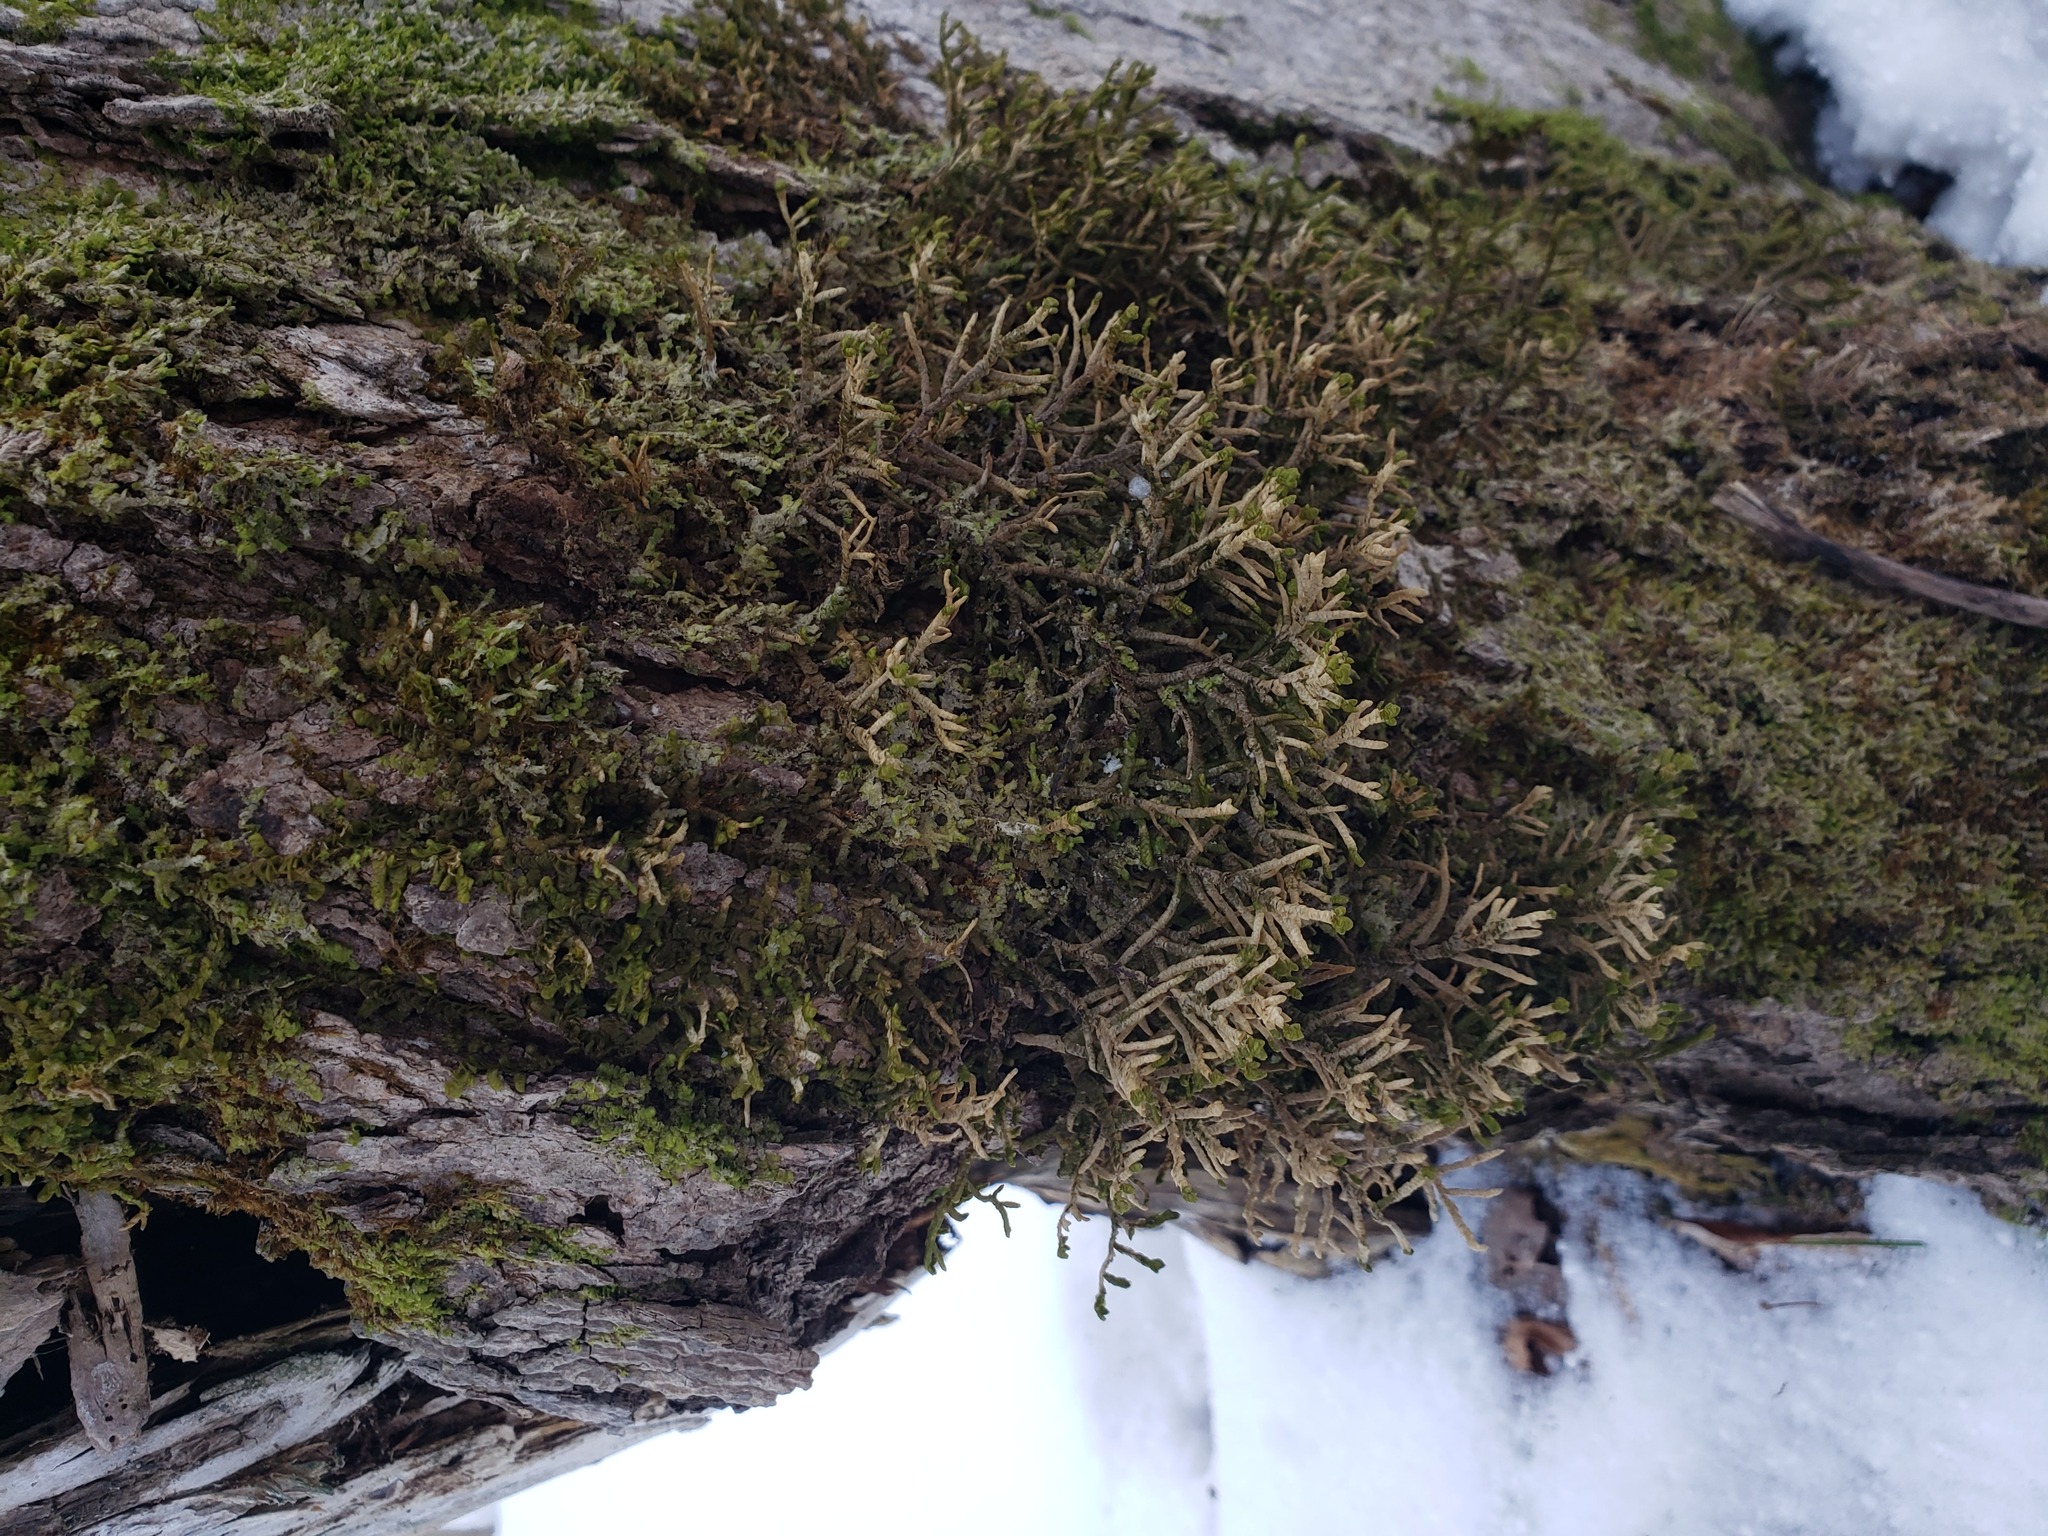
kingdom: Plantae
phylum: Marchantiophyta
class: Jungermanniopsida
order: Porellales
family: Porellaceae
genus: Porella
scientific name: Porella platyphylla
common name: Wall scalewort
